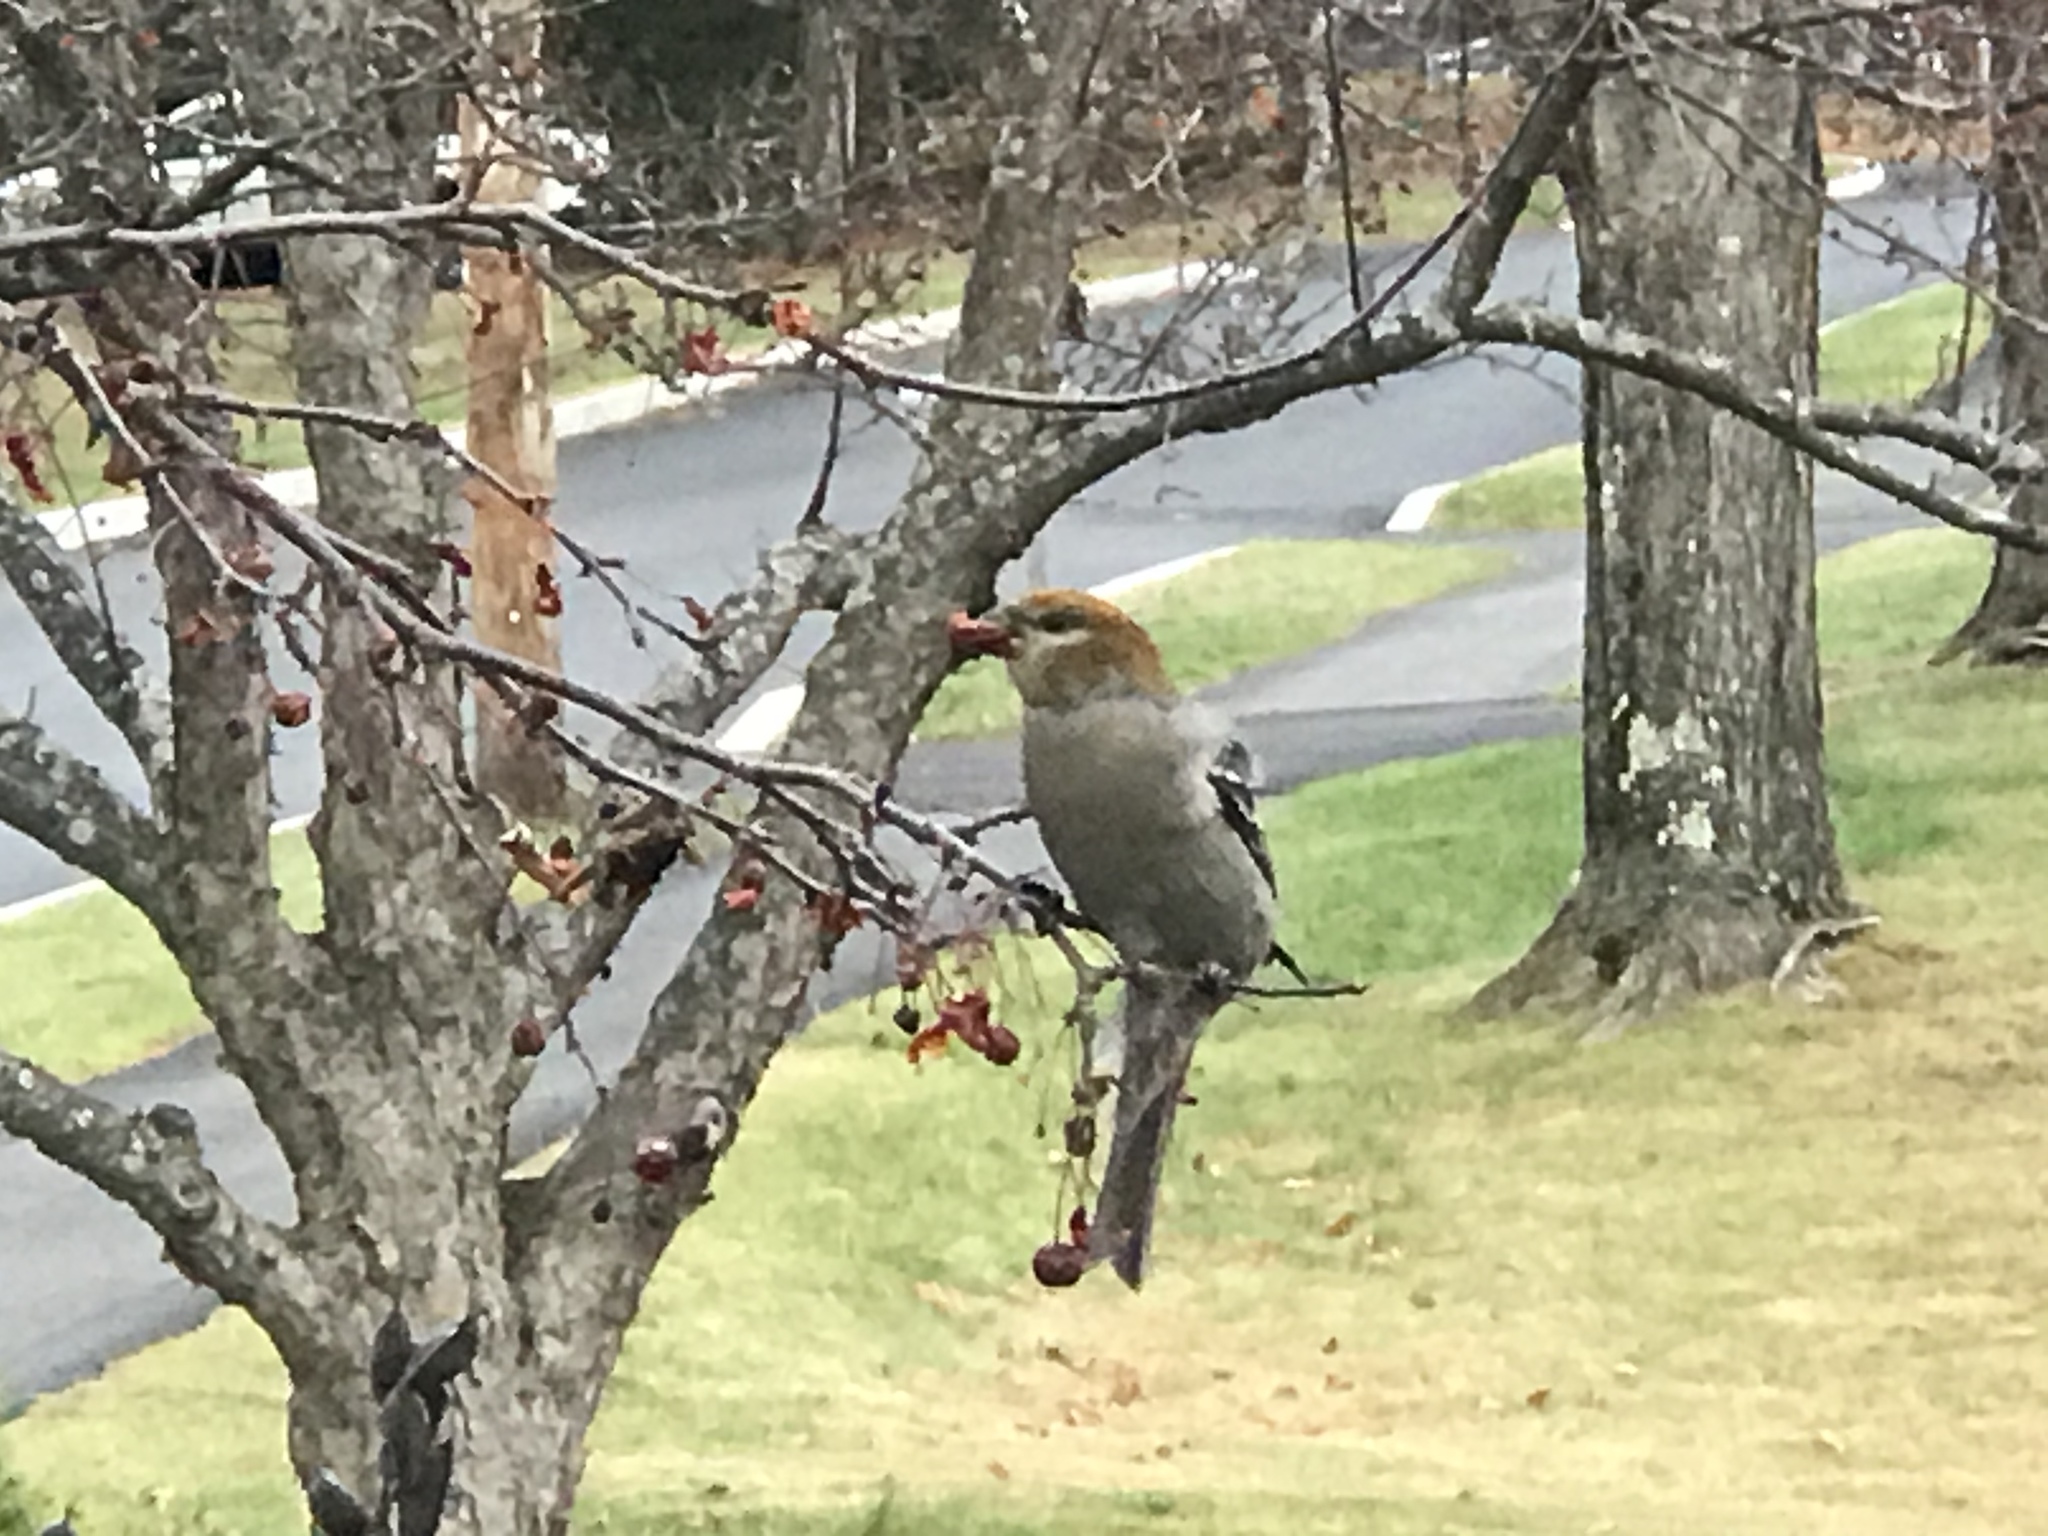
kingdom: Animalia
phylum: Chordata
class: Aves
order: Passeriformes
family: Fringillidae
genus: Pinicola
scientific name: Pinicola enucleator
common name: Pine grosbeak
